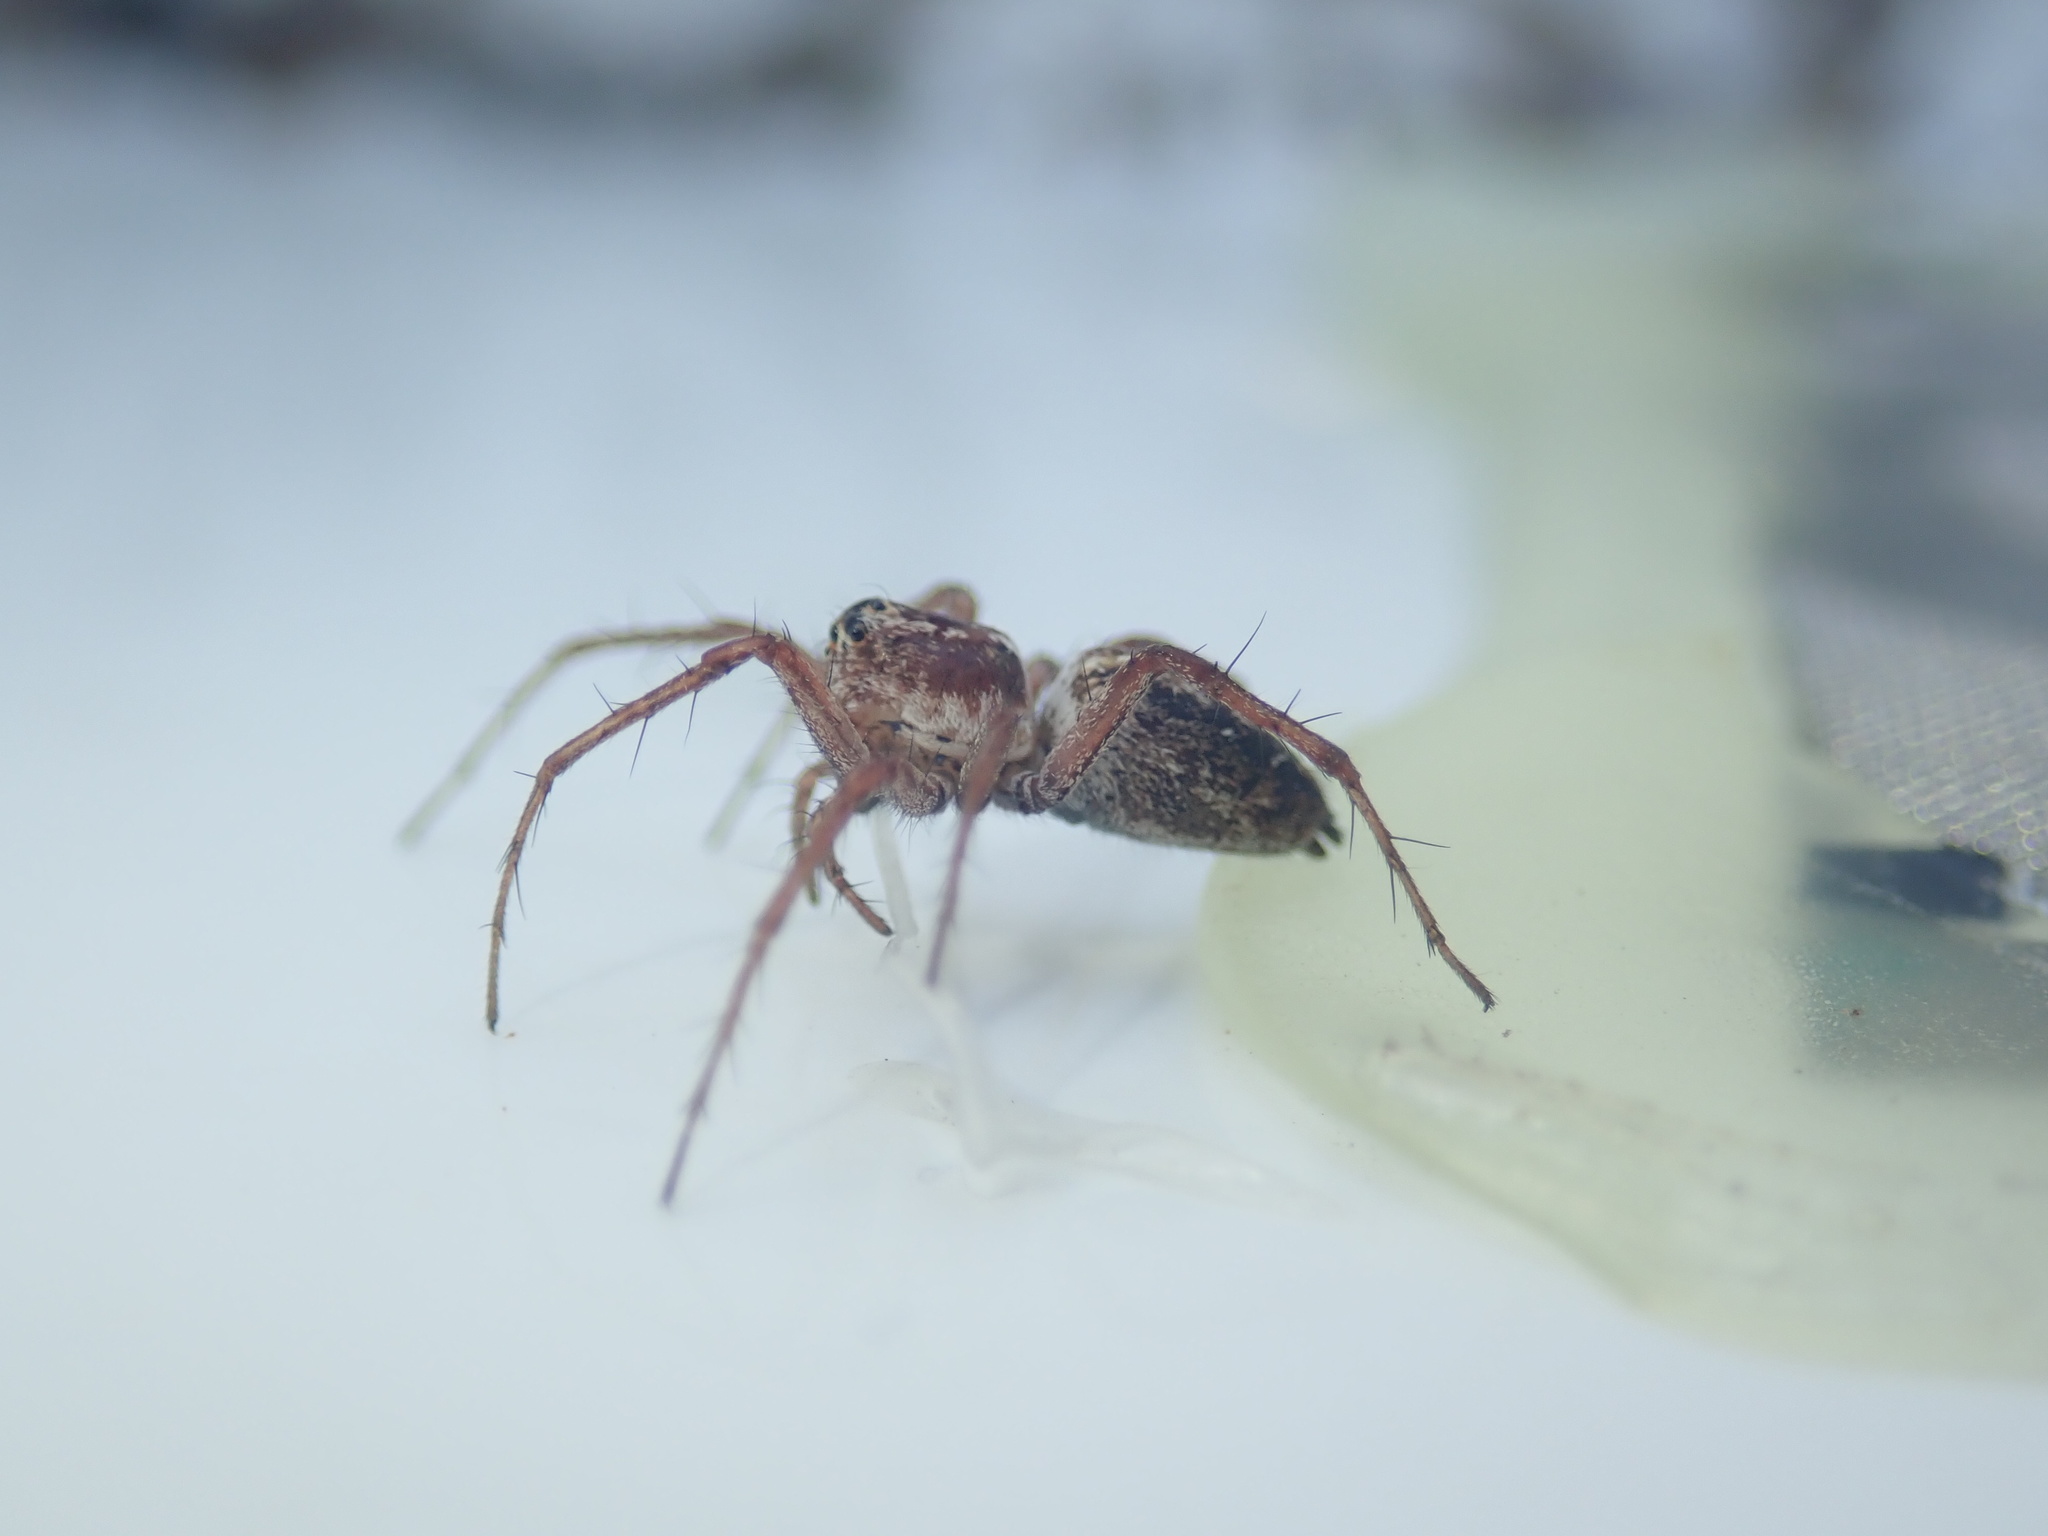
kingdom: Animalia
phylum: Arthropoda
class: Arachnida
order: Araneae
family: Oxyopidae
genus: Oxyopes
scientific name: Oxyopes gracilipes
